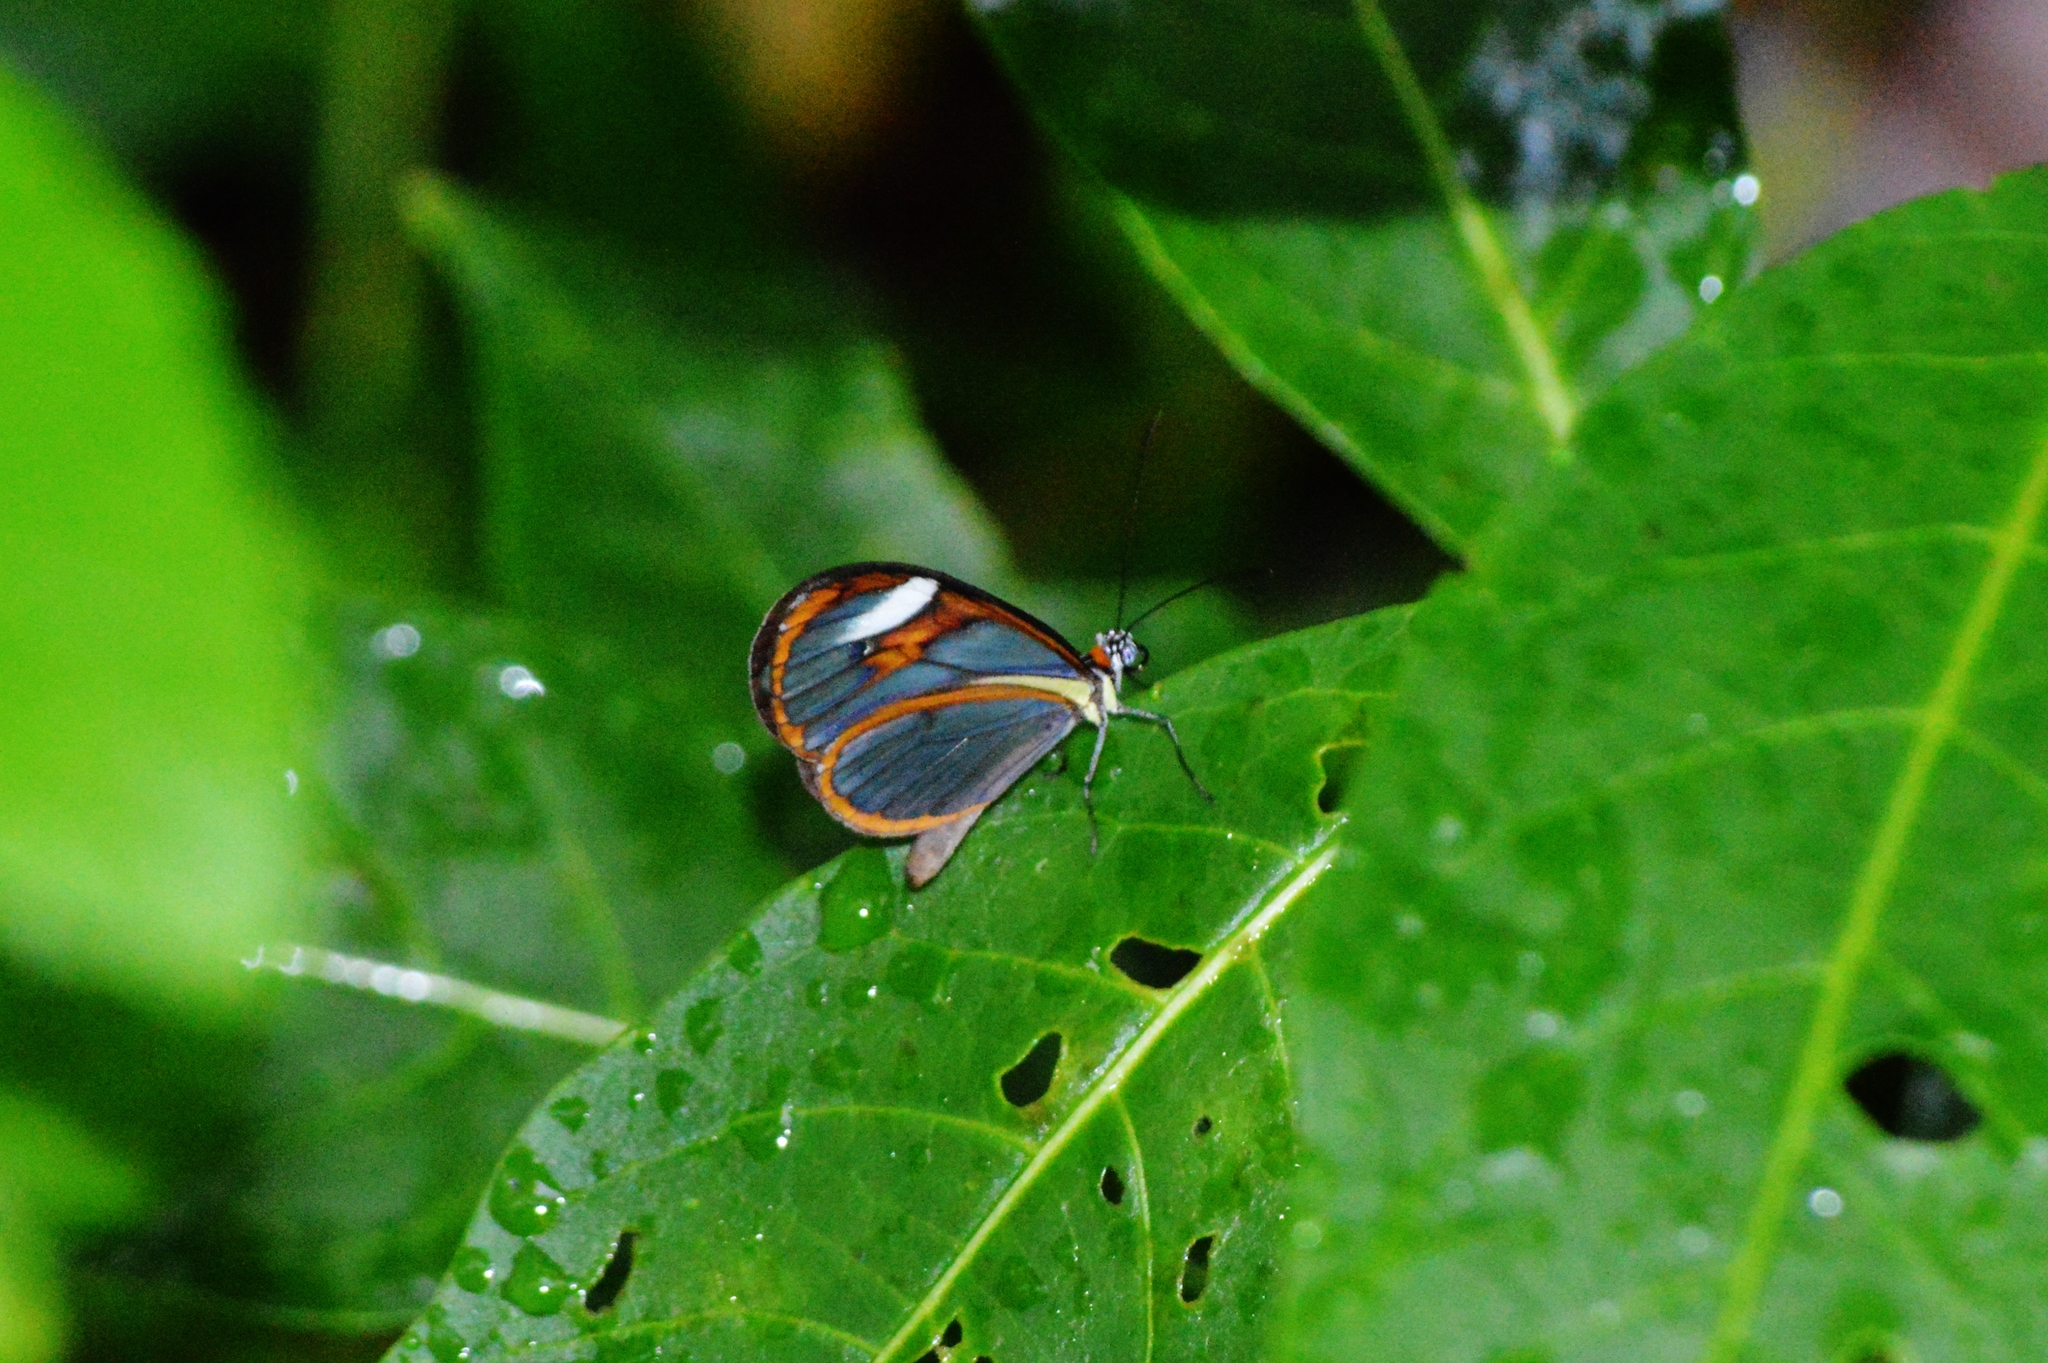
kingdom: Animalia
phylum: Arthropoda
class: Insecta
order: Lepidoptera
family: Nymphalidae
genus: Hypoleria
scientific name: Hypoleria lavinia
